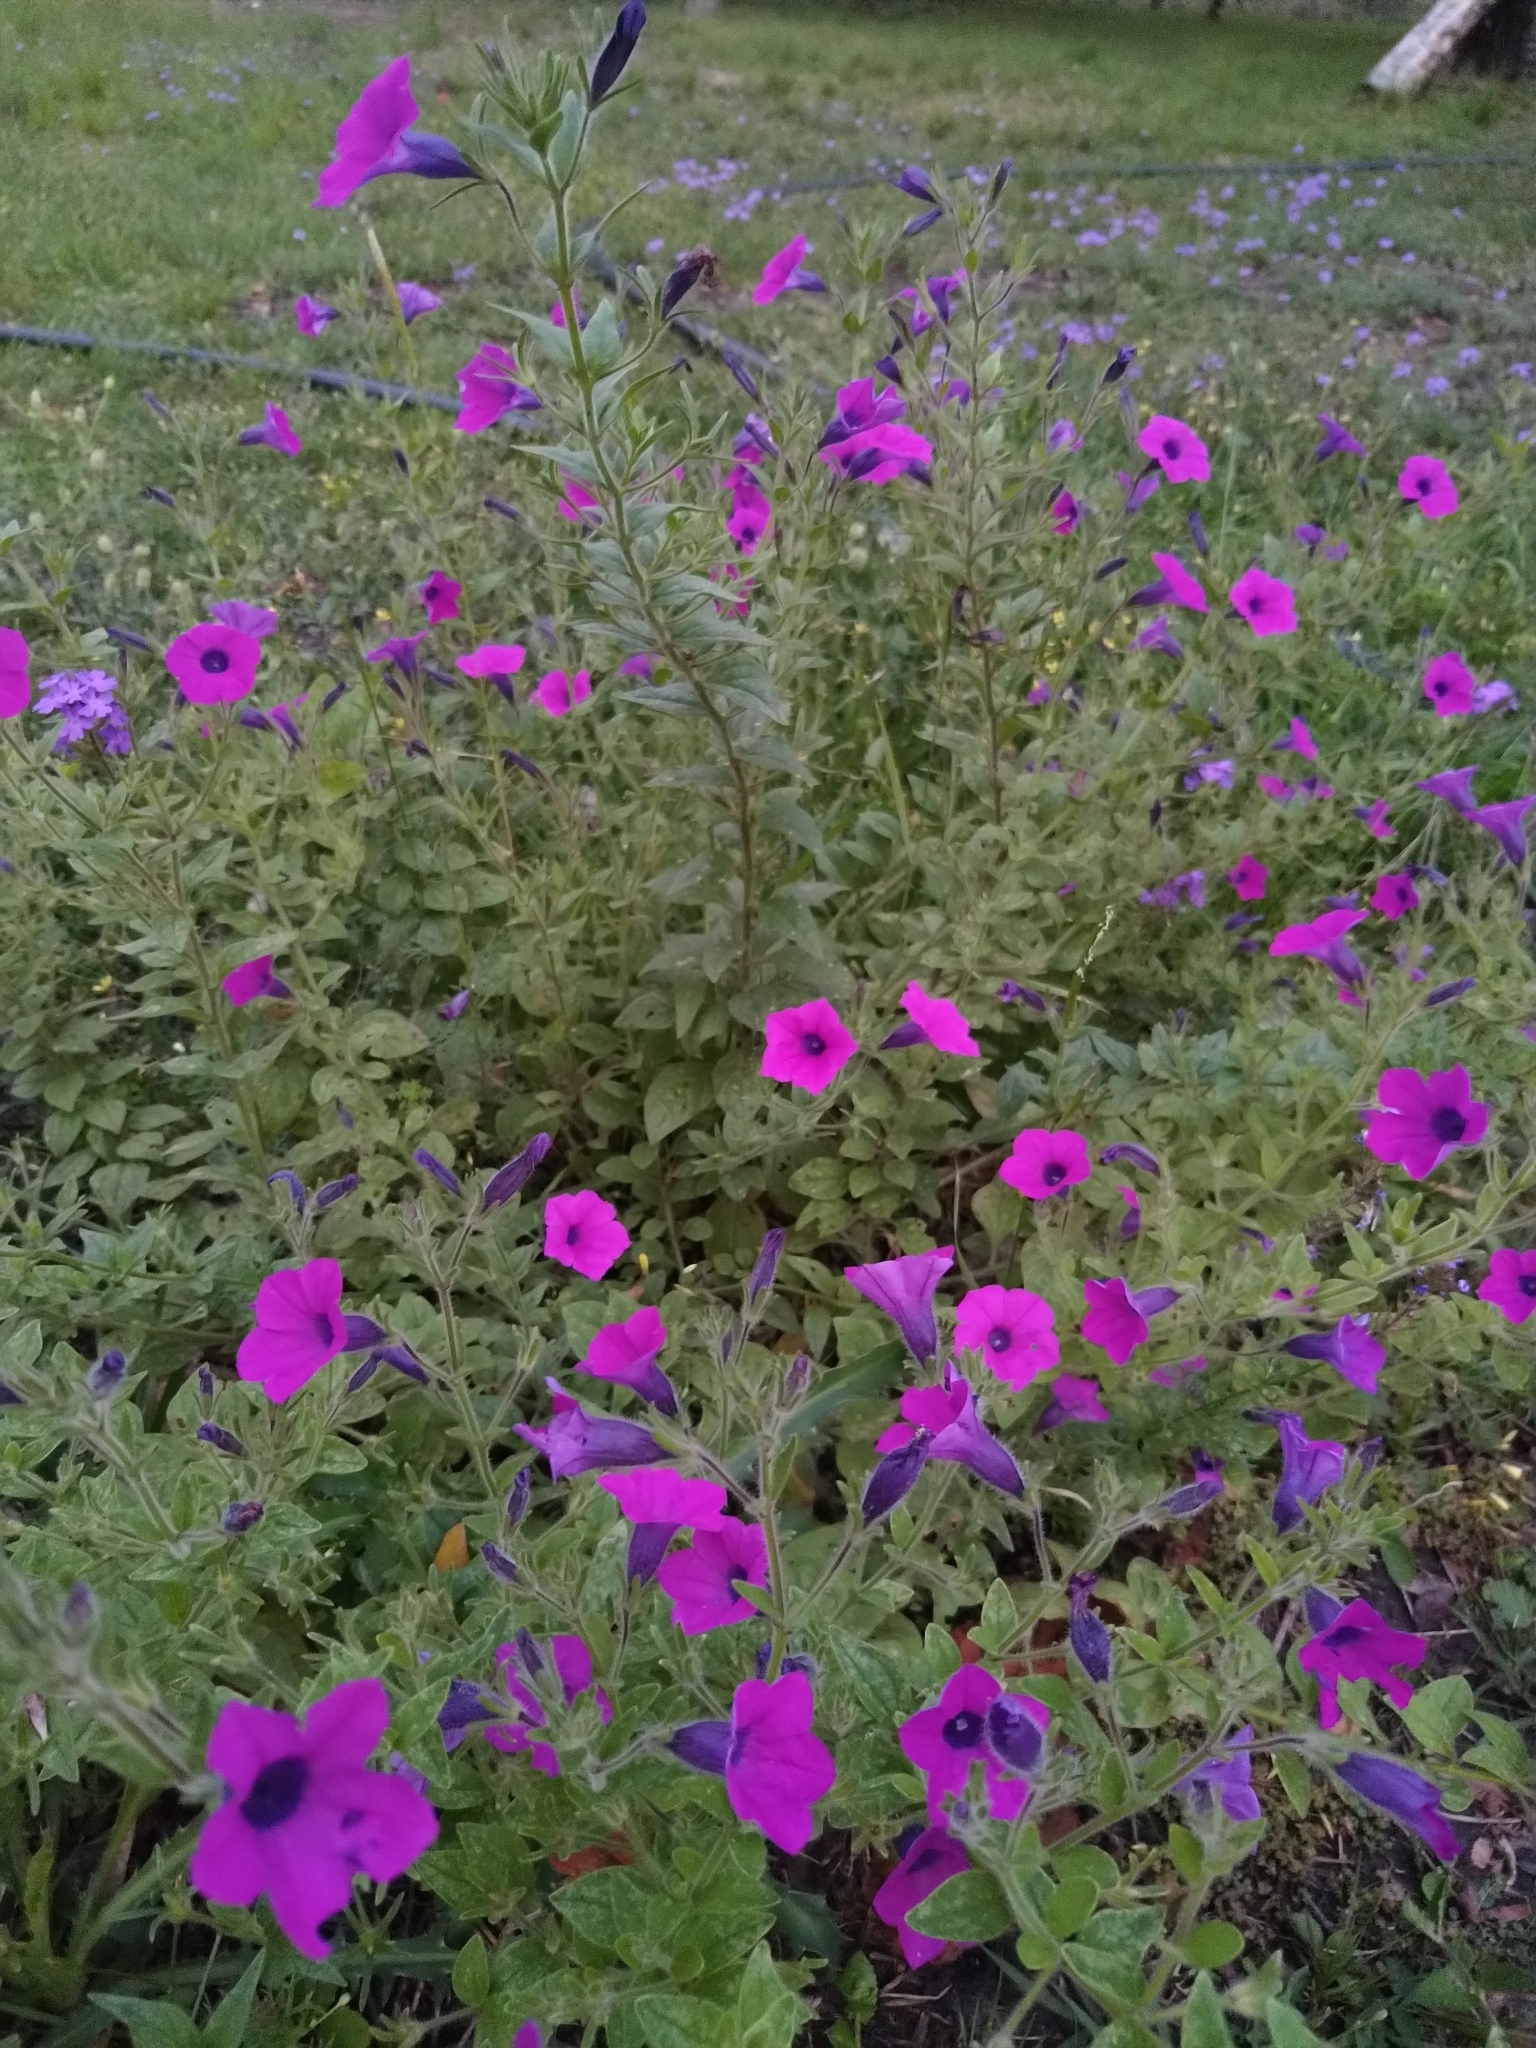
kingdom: Plantae
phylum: Tracheophyta
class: Magnoliopsida
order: Solanales
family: Solanaceae
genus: Petunia
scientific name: Petunia integrifolia
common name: Violet-flower petunia
